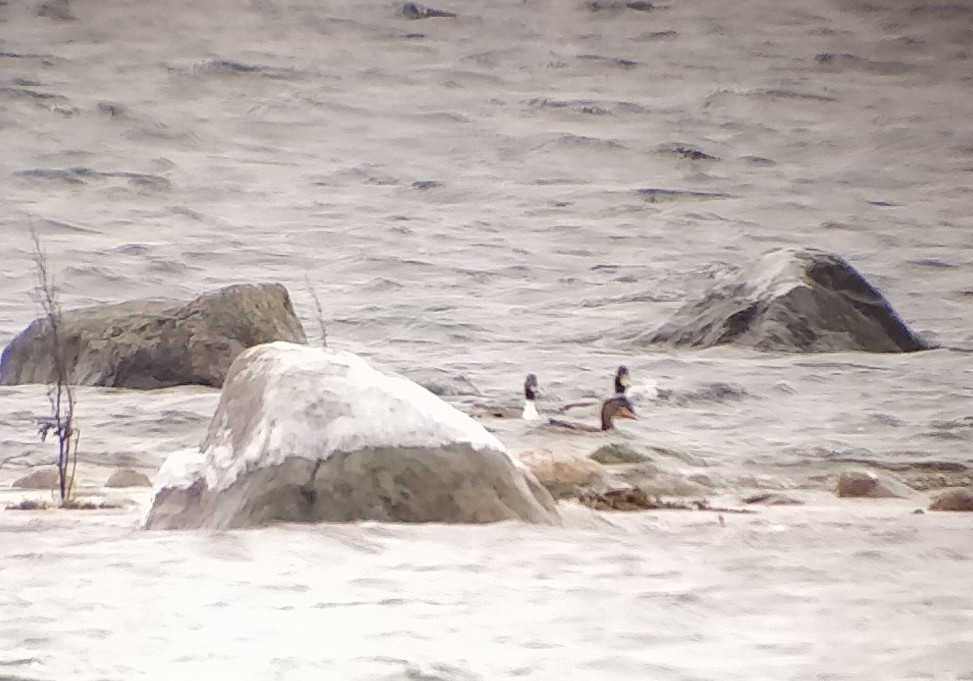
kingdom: Animalia
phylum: Chordata
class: Aves
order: Anseriformes
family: Anatidae
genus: Anas
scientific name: Anas acuta
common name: Northern pintail
